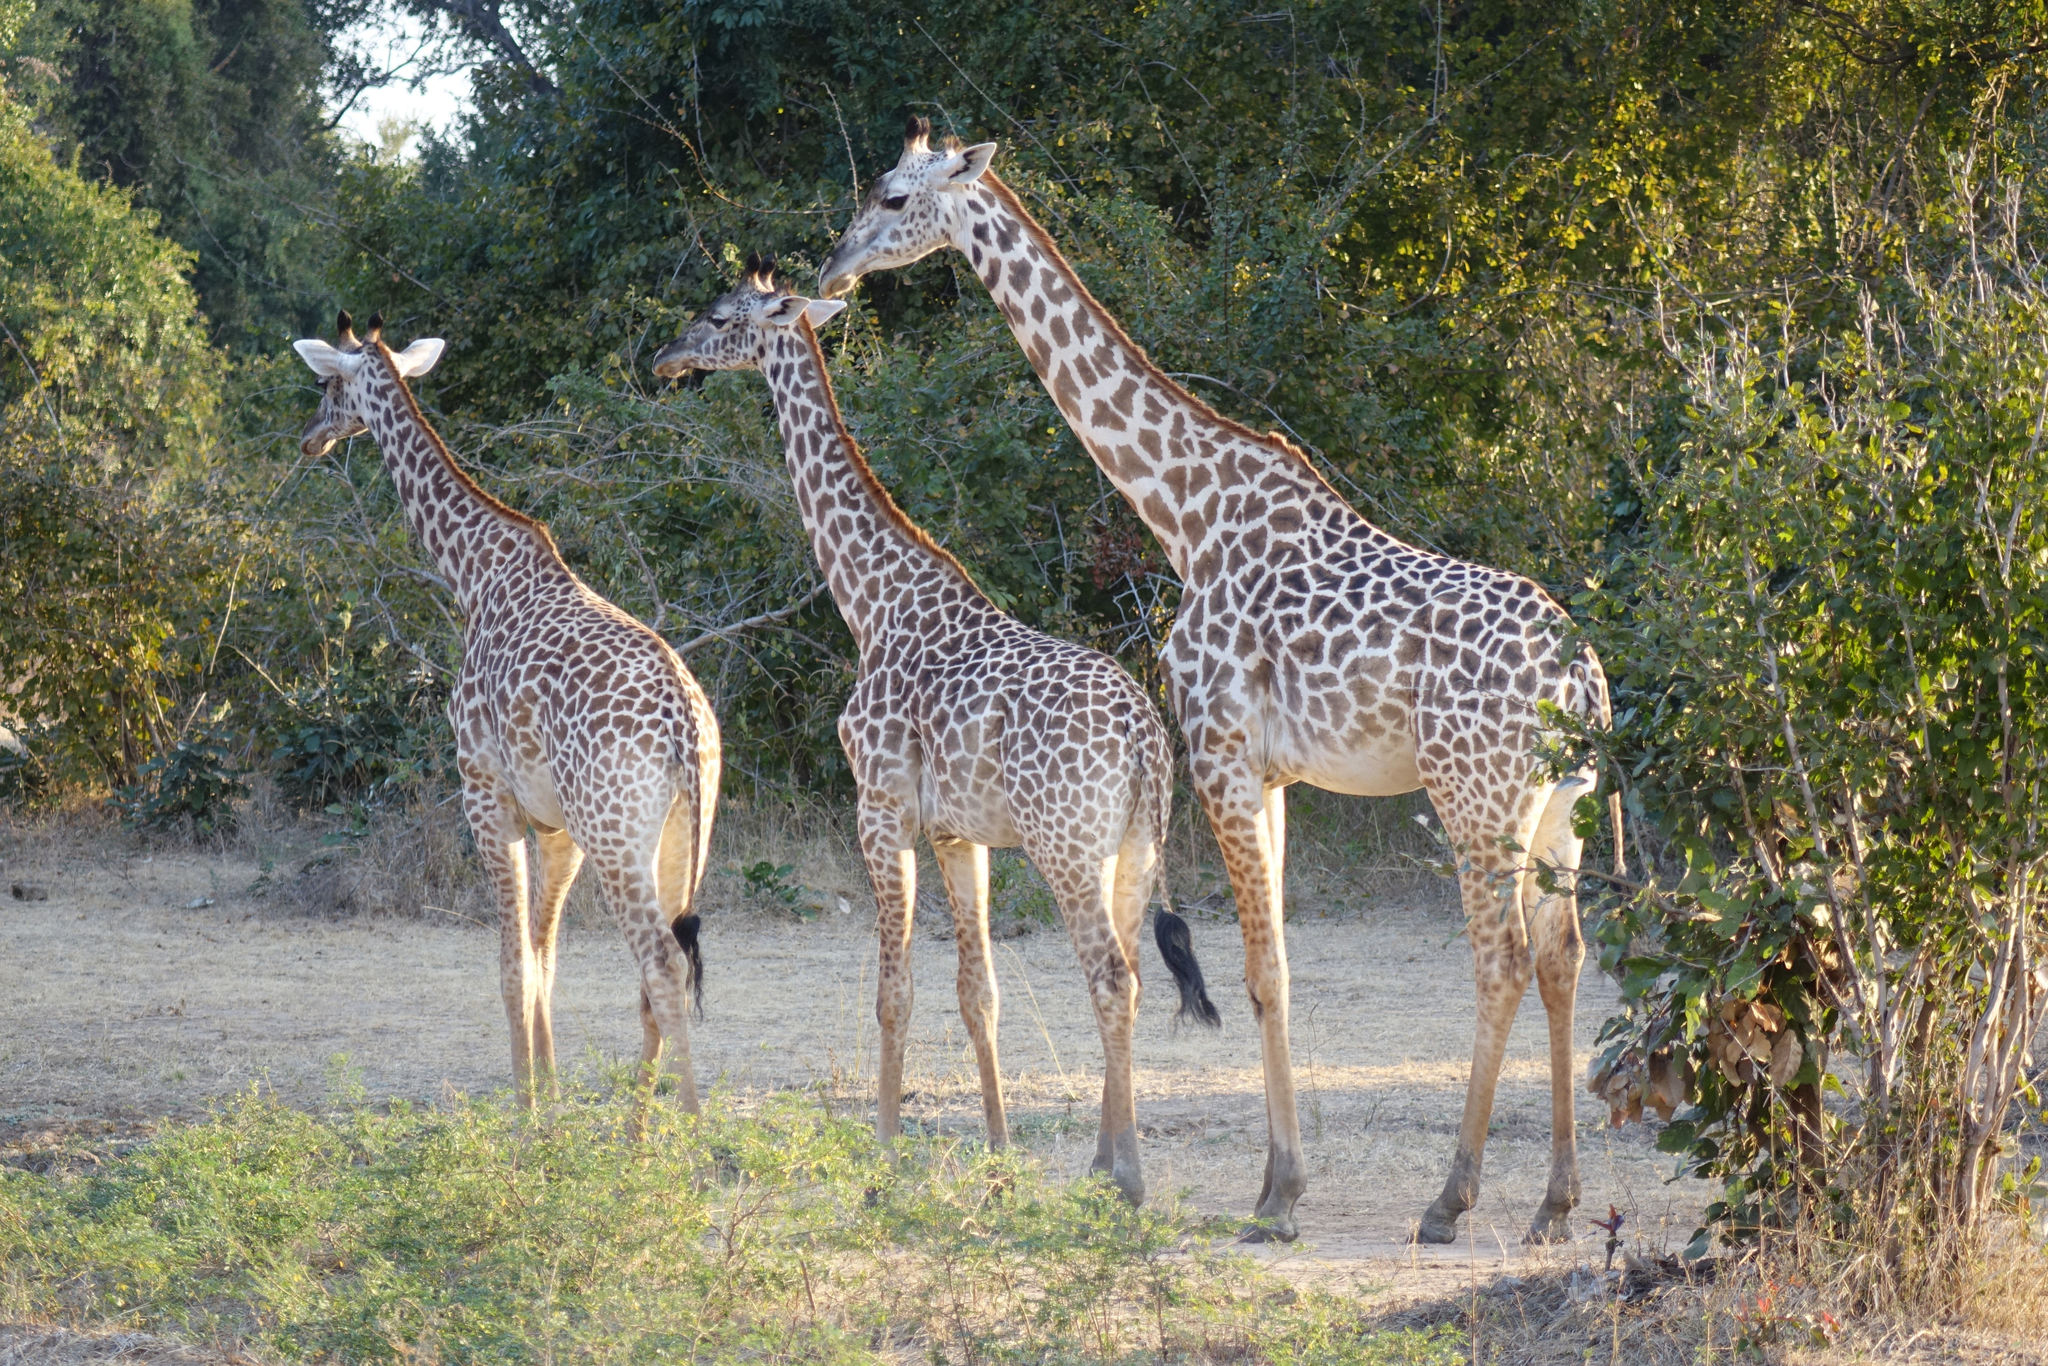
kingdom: Animalia
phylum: Chordata
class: Mammalia
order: Artiodactyla
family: Giraffidae
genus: Giraffa
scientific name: Giraffa tippelskirchi
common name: Masai giraffe
